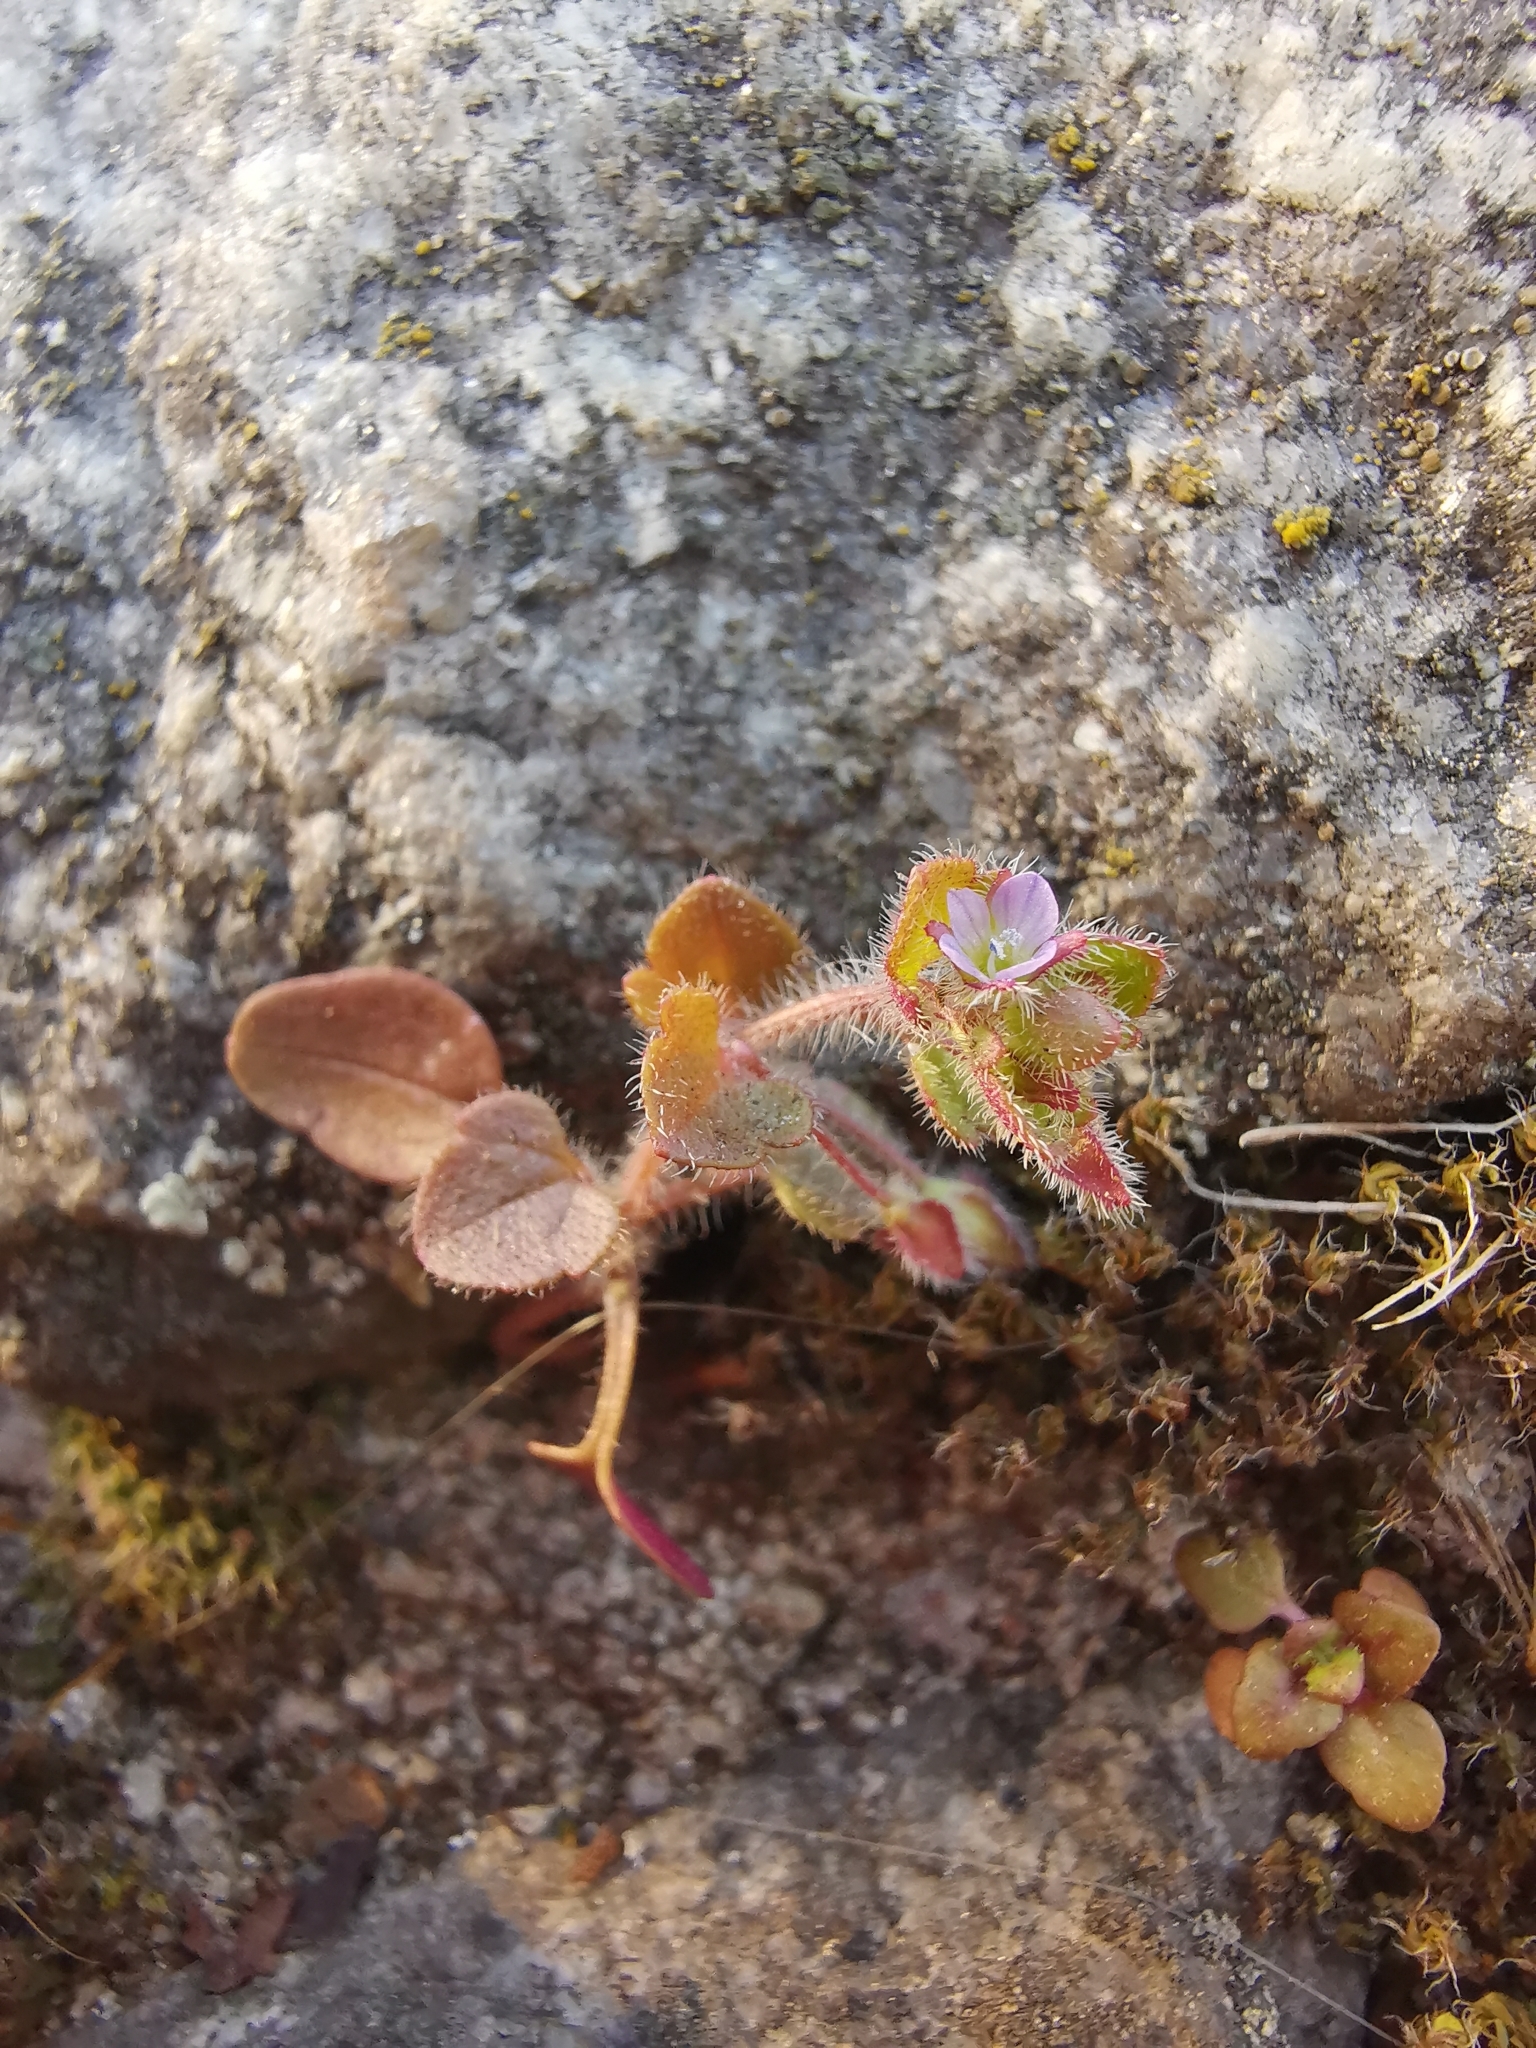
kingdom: Plantae
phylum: Tracheophyta
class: Magnoliopsida
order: Lamiales
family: Plantaginaceae
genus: Veronica
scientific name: Veronica sublobata
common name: False ivy-leaved speedwell
